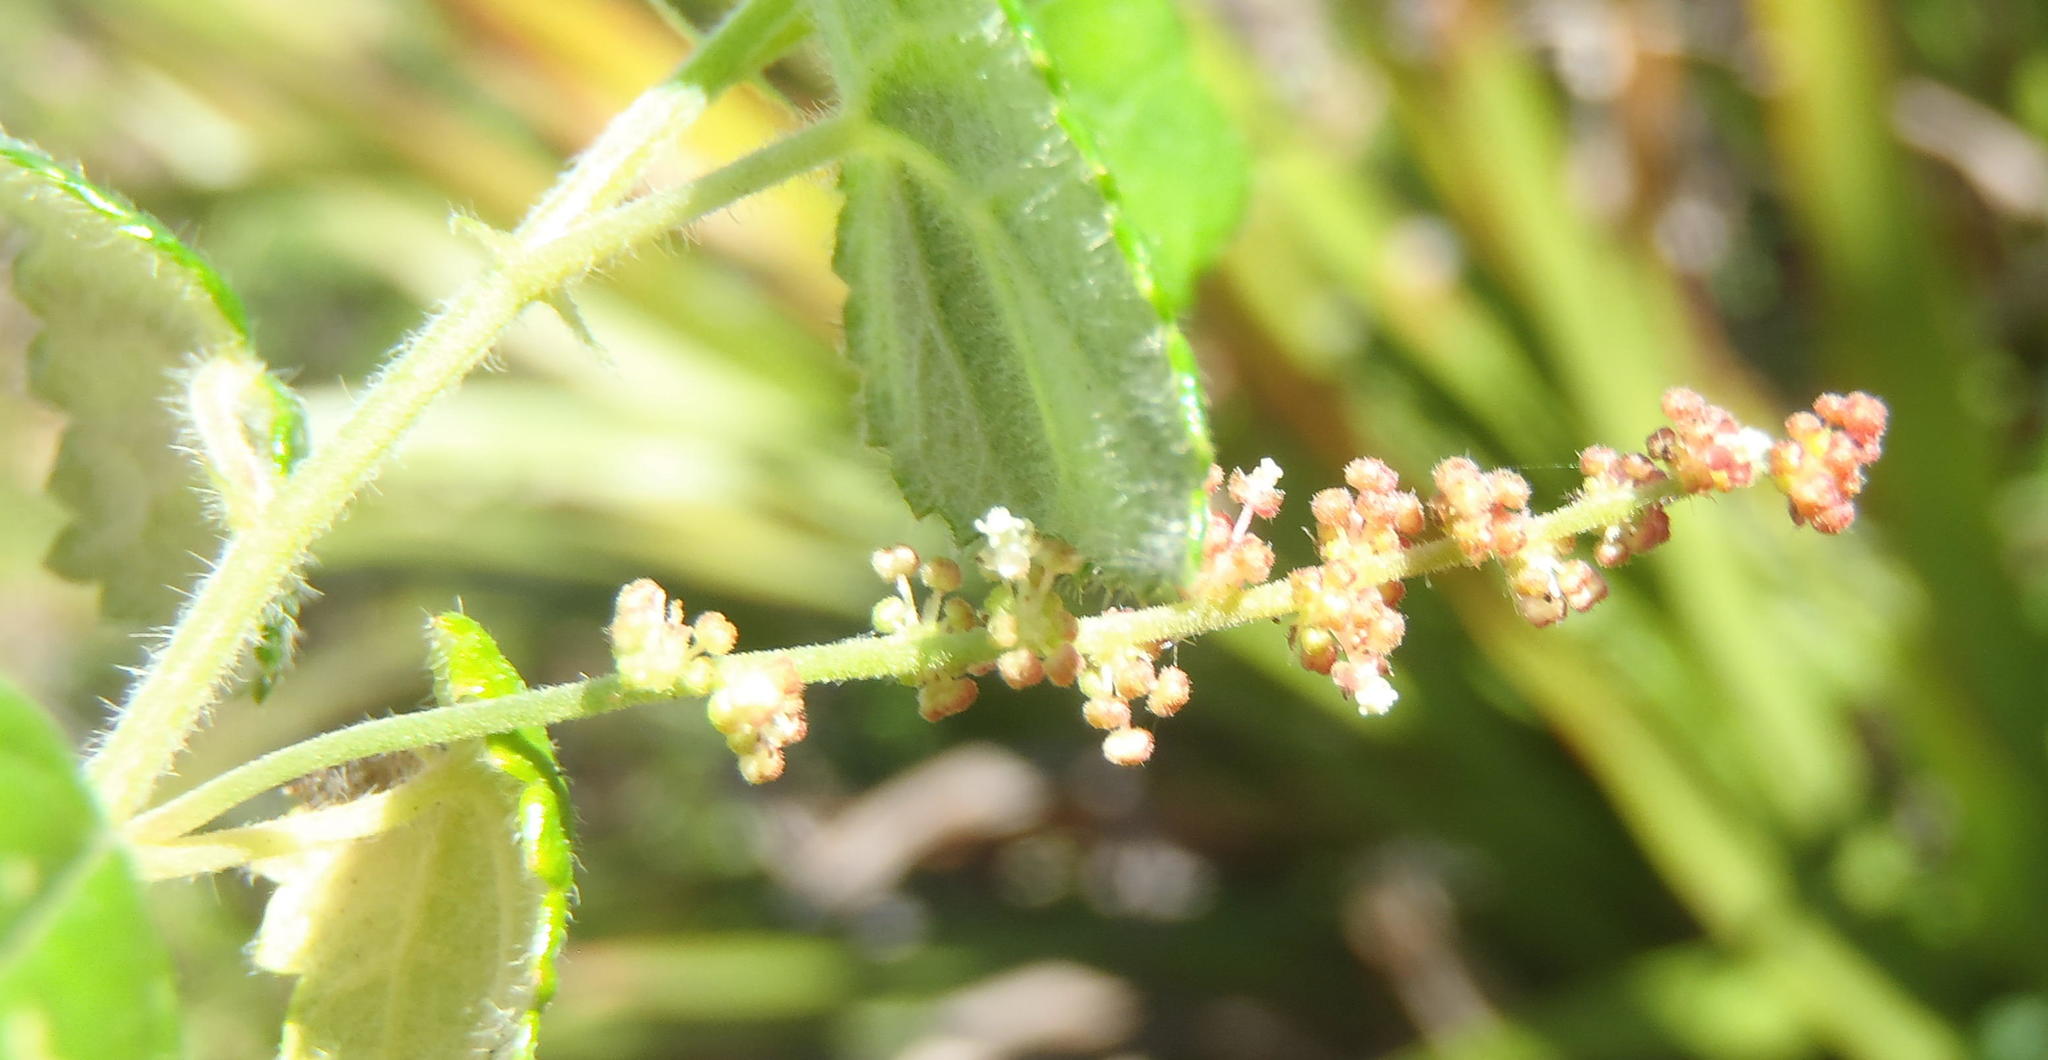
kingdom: Plantae
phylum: Tracheophyta
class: Magnoliopsida
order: Malpighiales
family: Euphorbiaceae
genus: Bernardia
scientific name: Bernardia corensis
